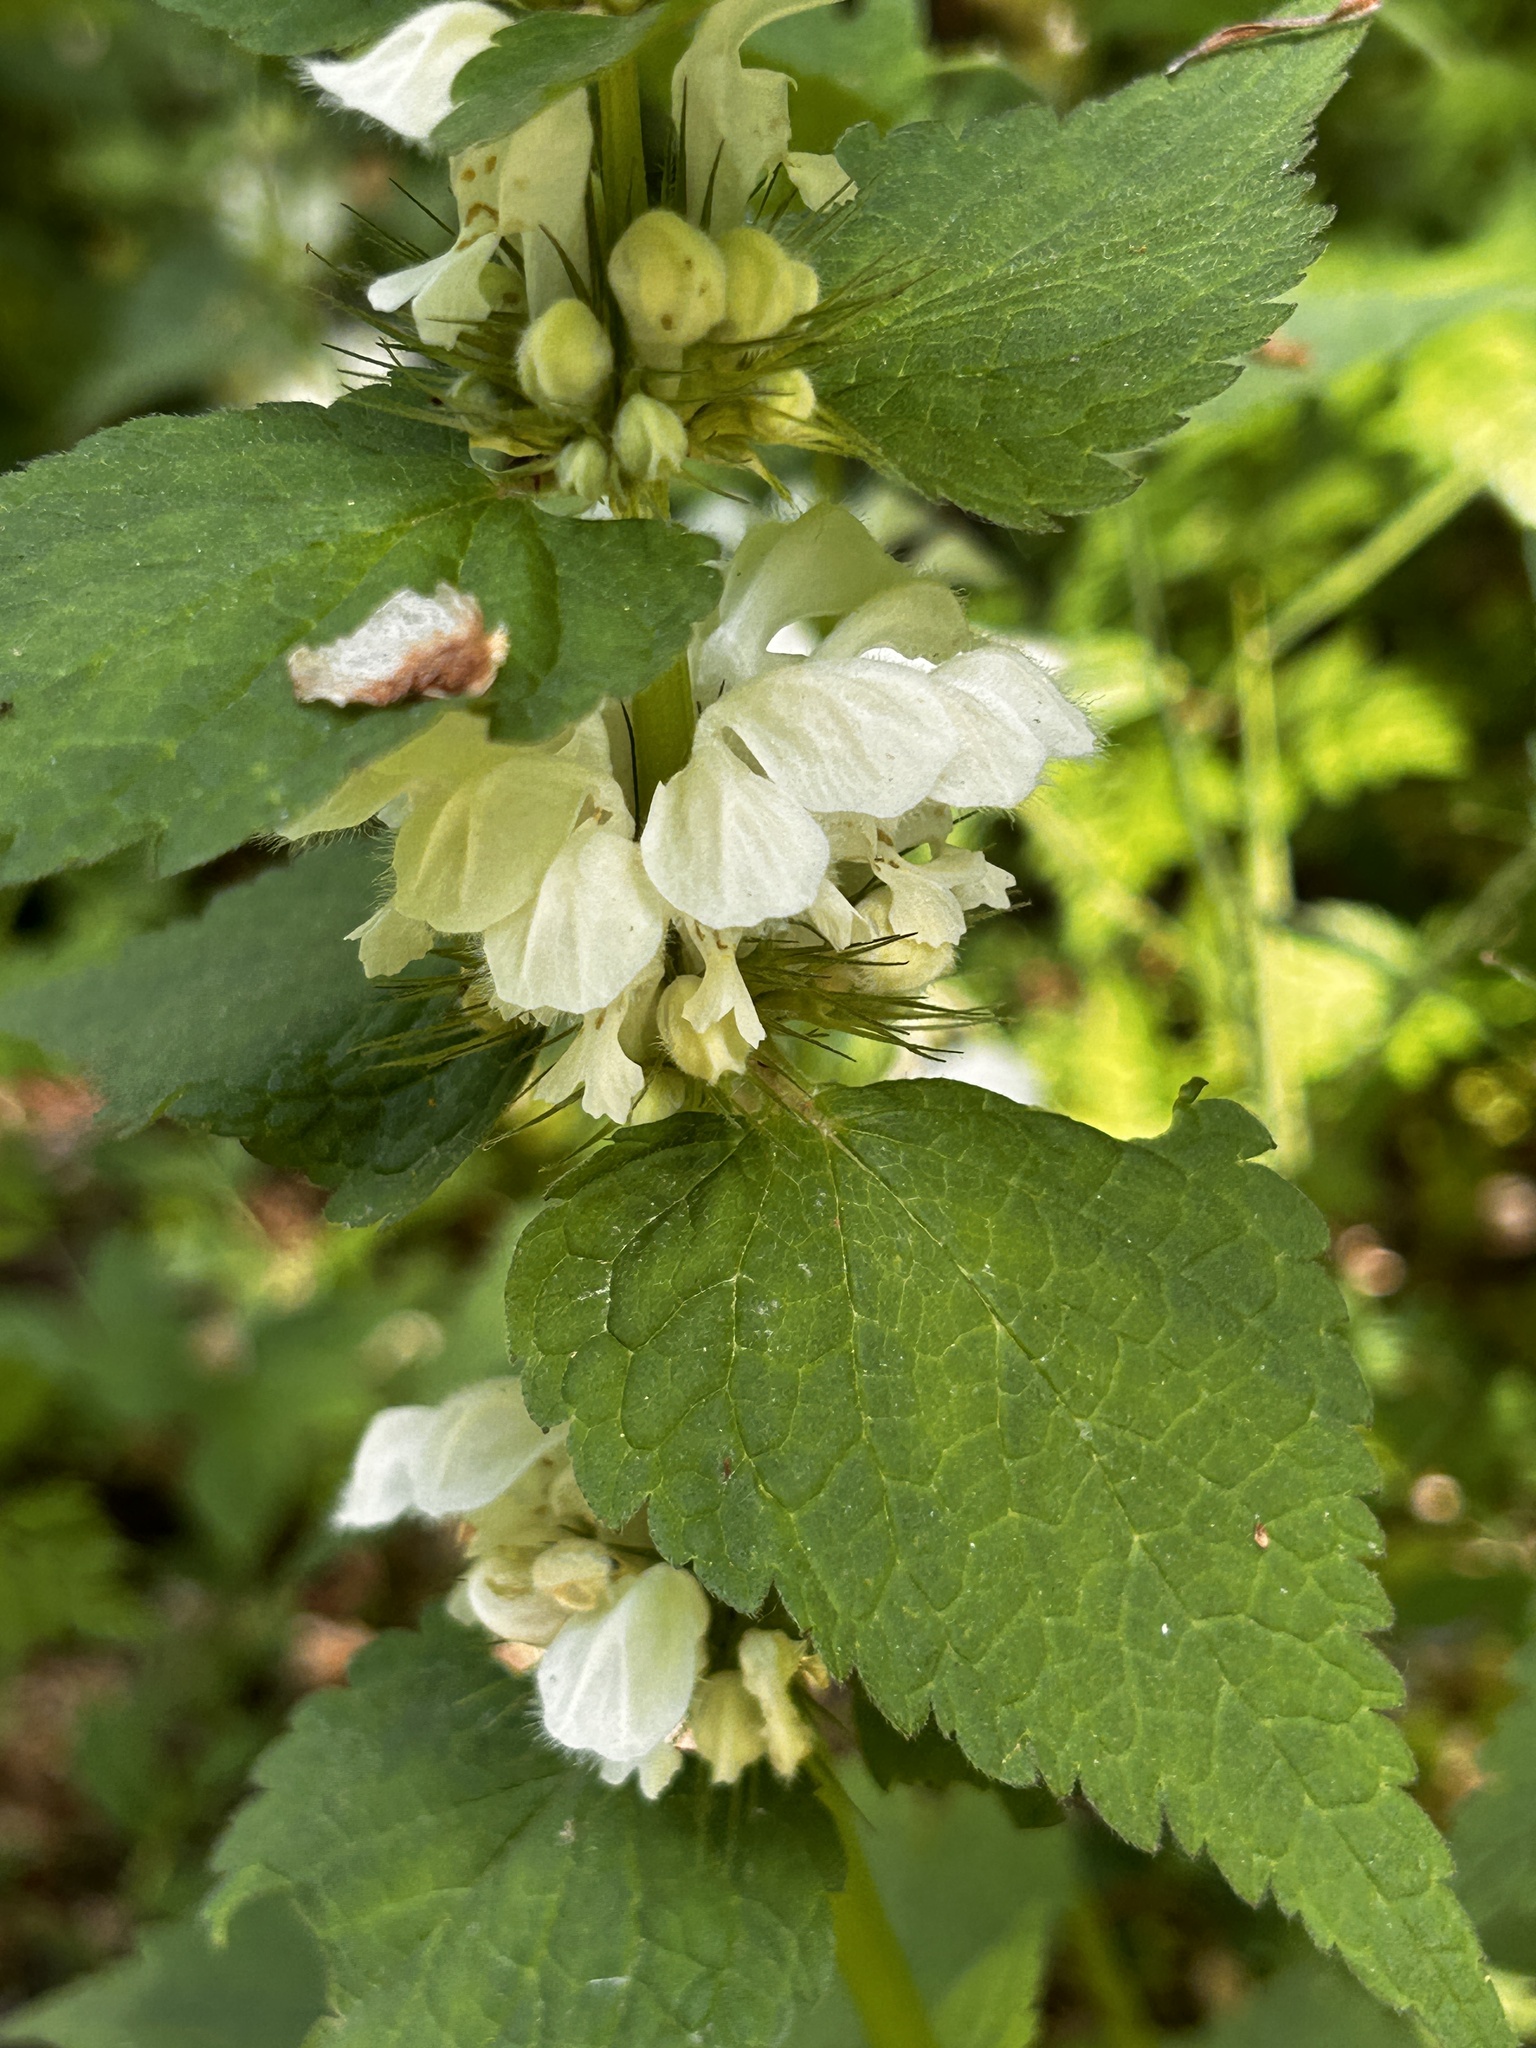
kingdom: Plantae
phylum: Tracheophyta
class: Magnoliopsida
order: Lamiales
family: Lamiaceae
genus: Lamium
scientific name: Lamium album
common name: White dead-nettle
